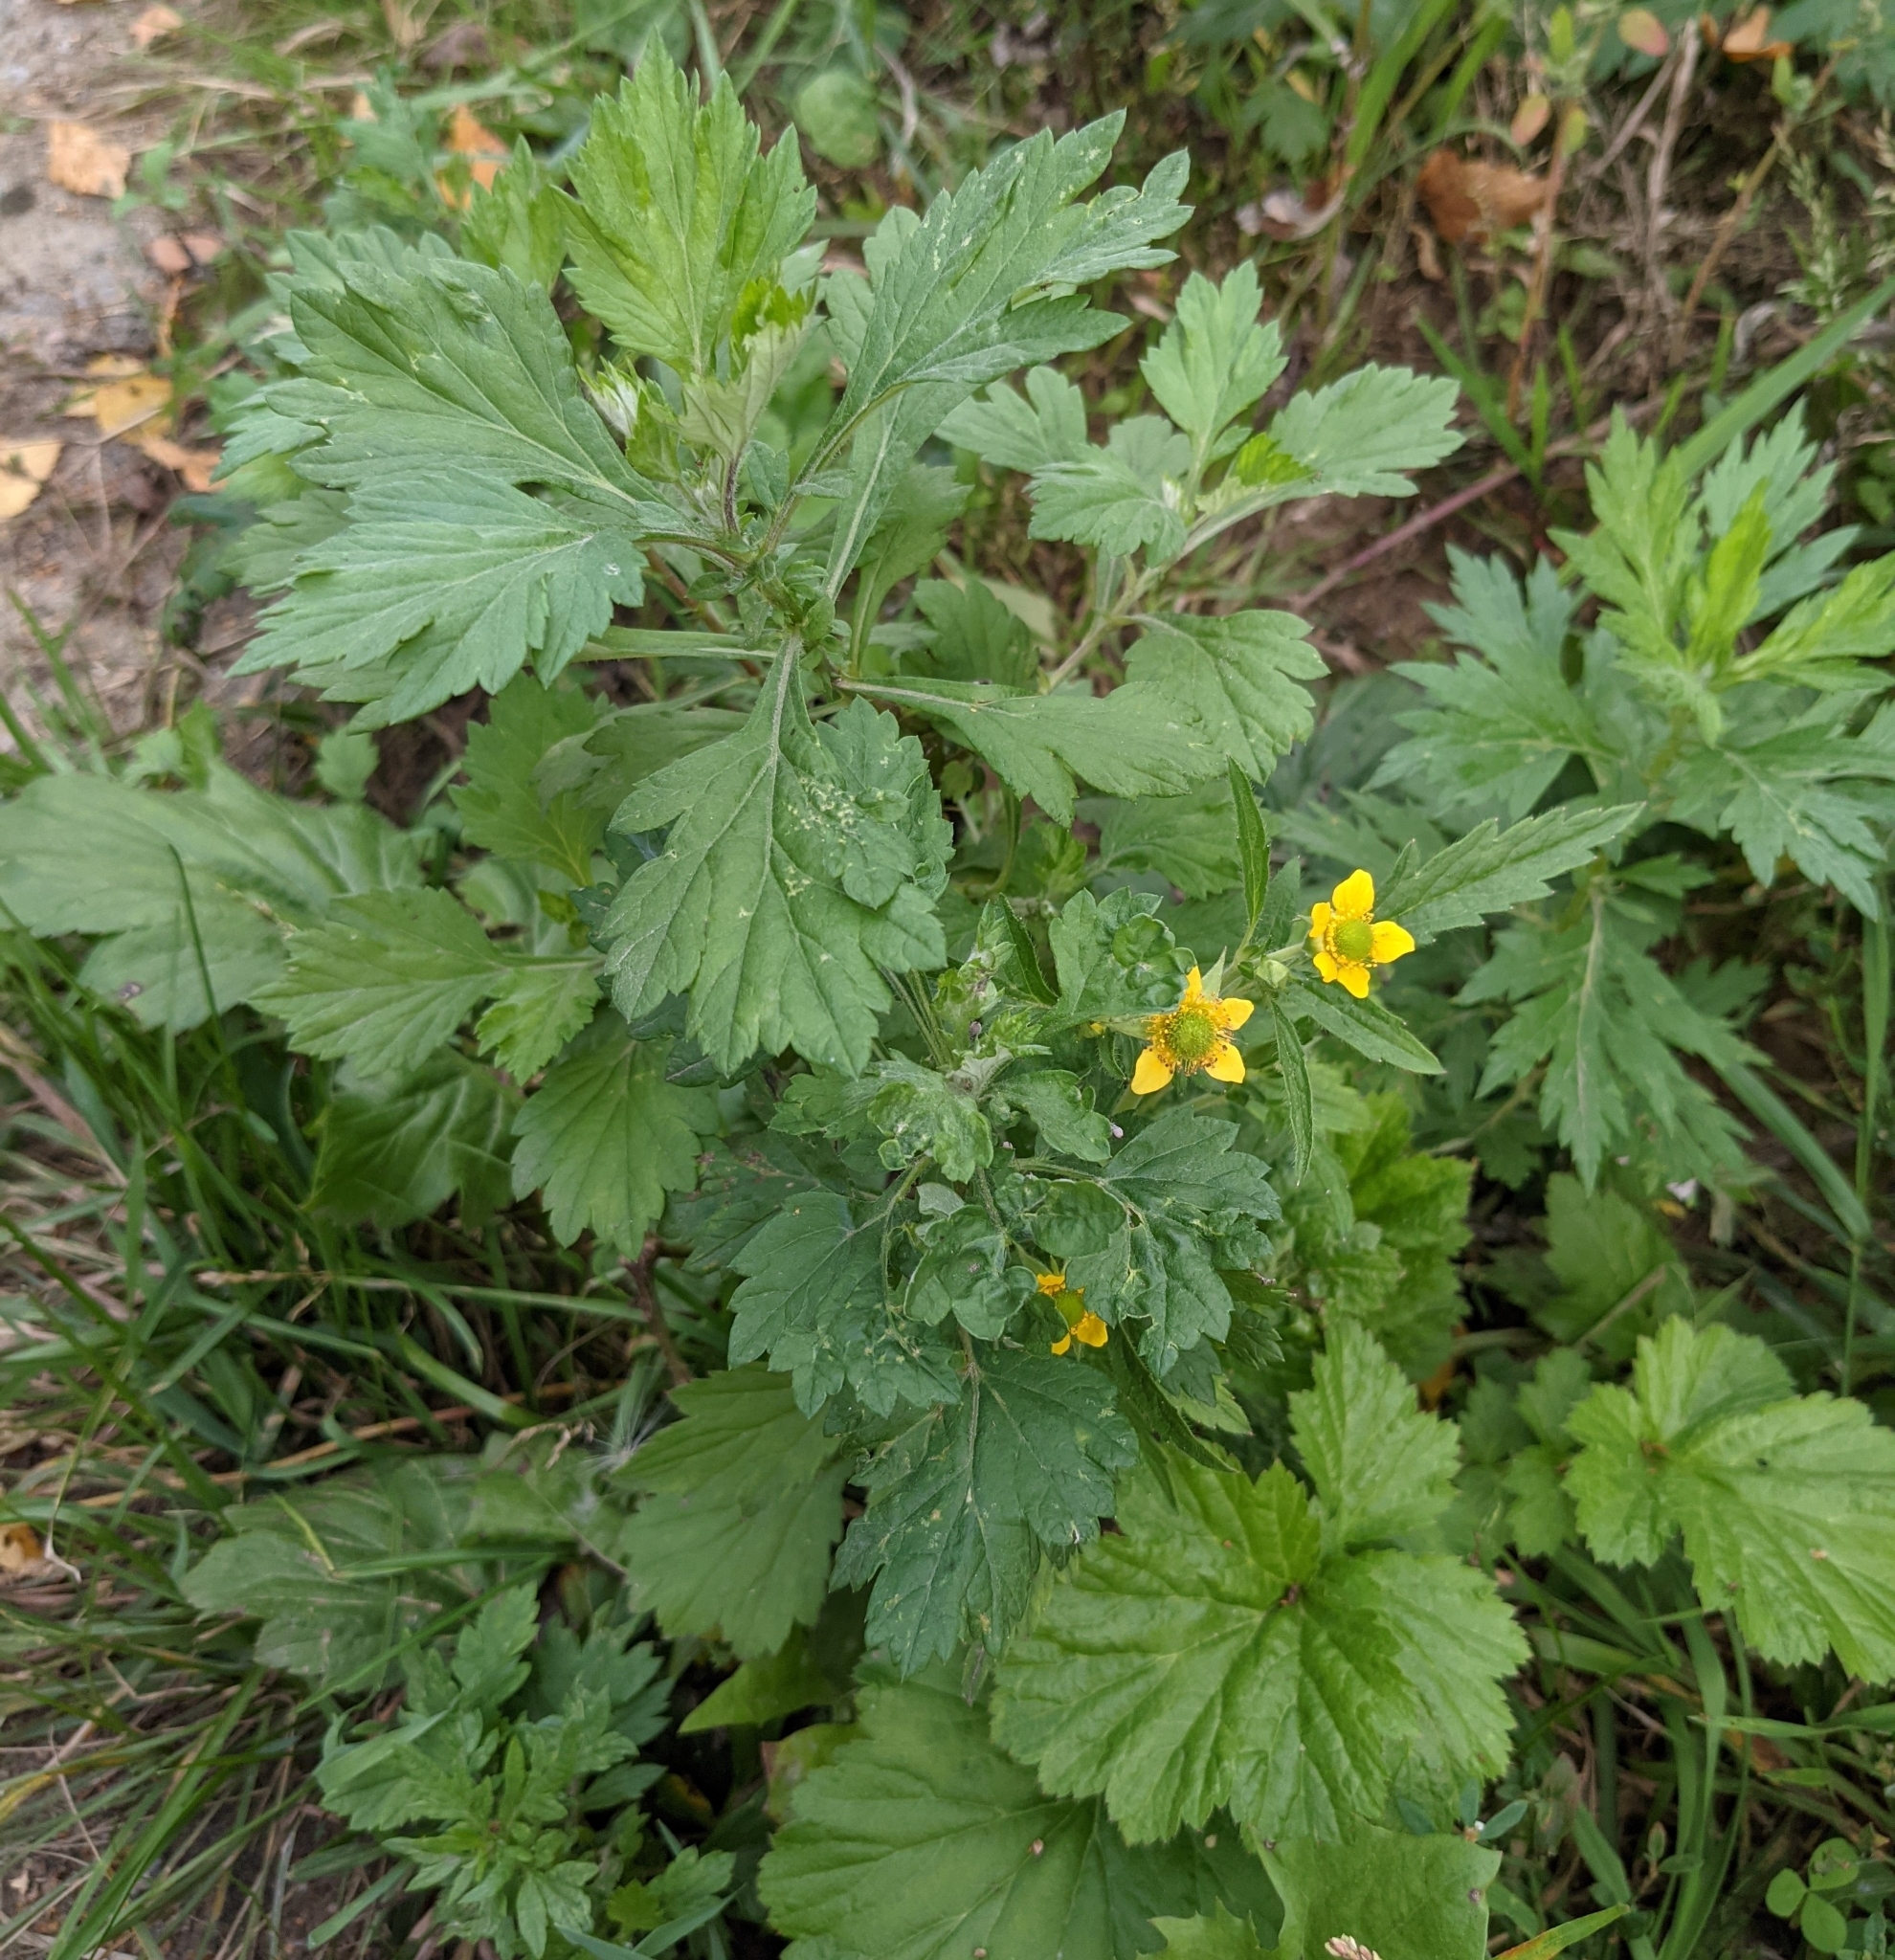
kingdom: Plantae
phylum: Tracheophyta
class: Magnoliopsida
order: Rosales
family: Rosaceae
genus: Geum
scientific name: Geum aleppicum
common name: Yellow avens
